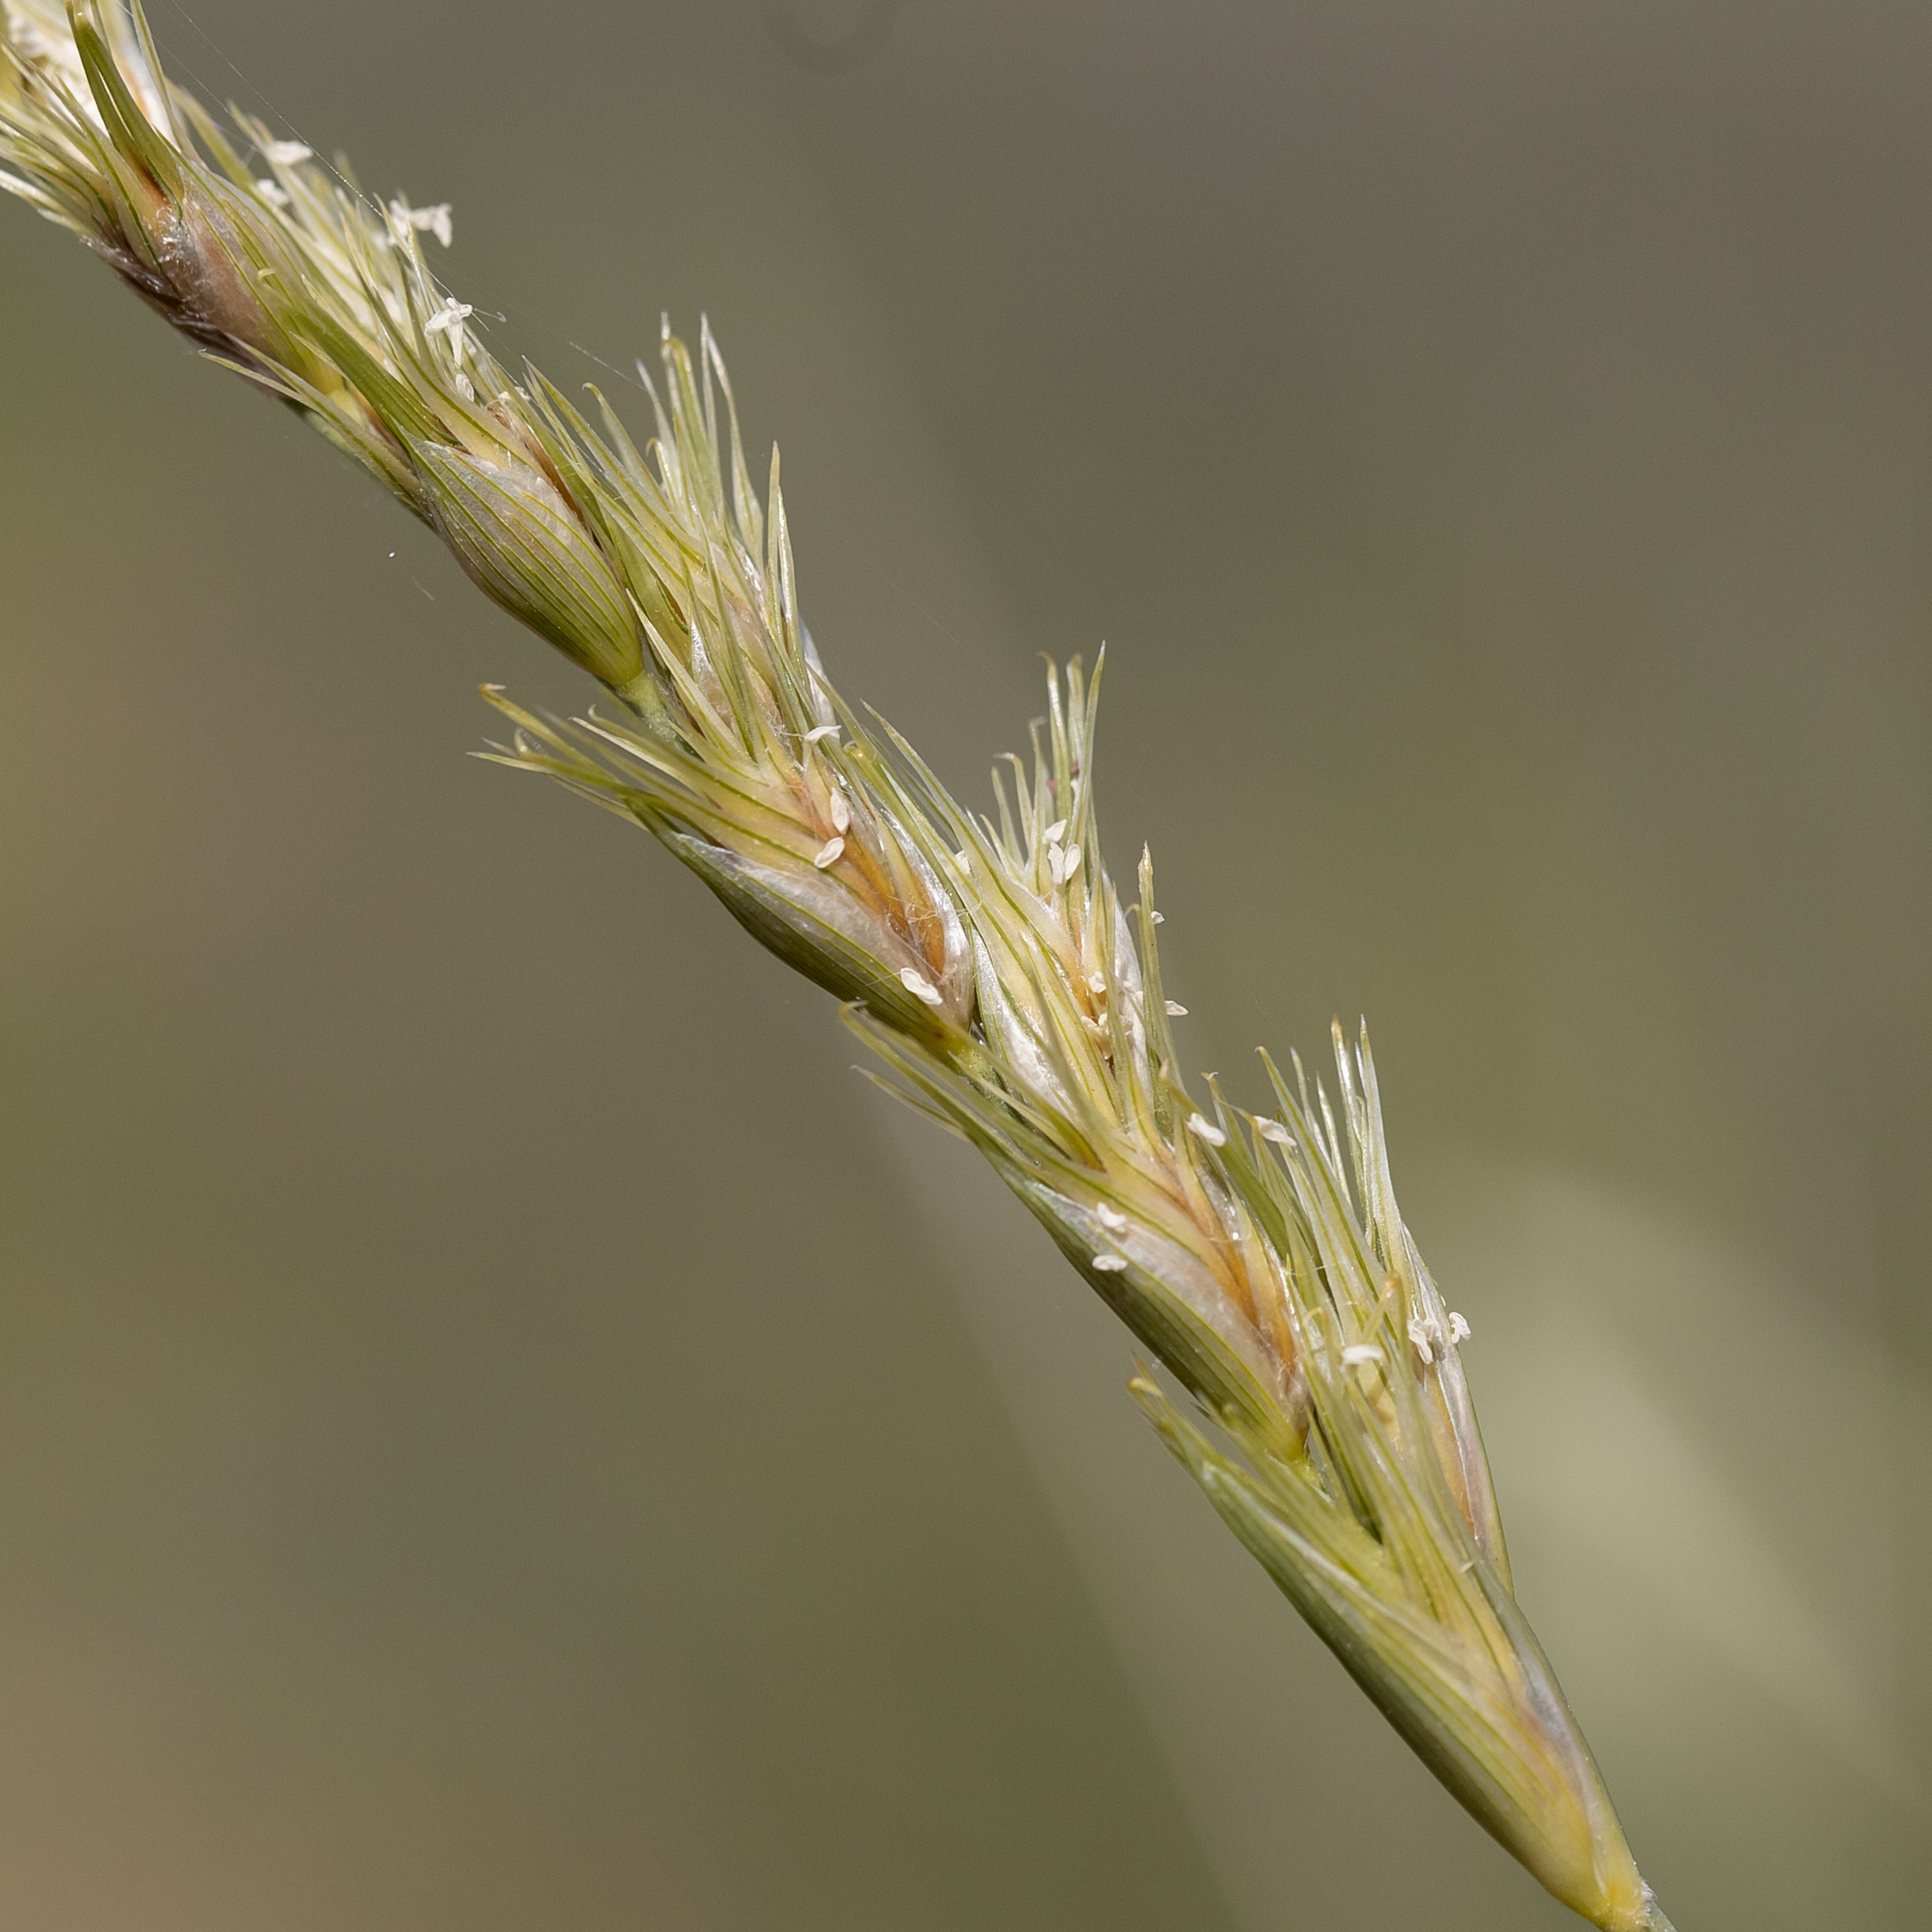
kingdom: Plantae
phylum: Tracheophyta
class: Liliopsida
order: Poales
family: Poaceae
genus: Astrebla
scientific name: Astrebla squarrosa
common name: Wheat-ear mitchell grass
